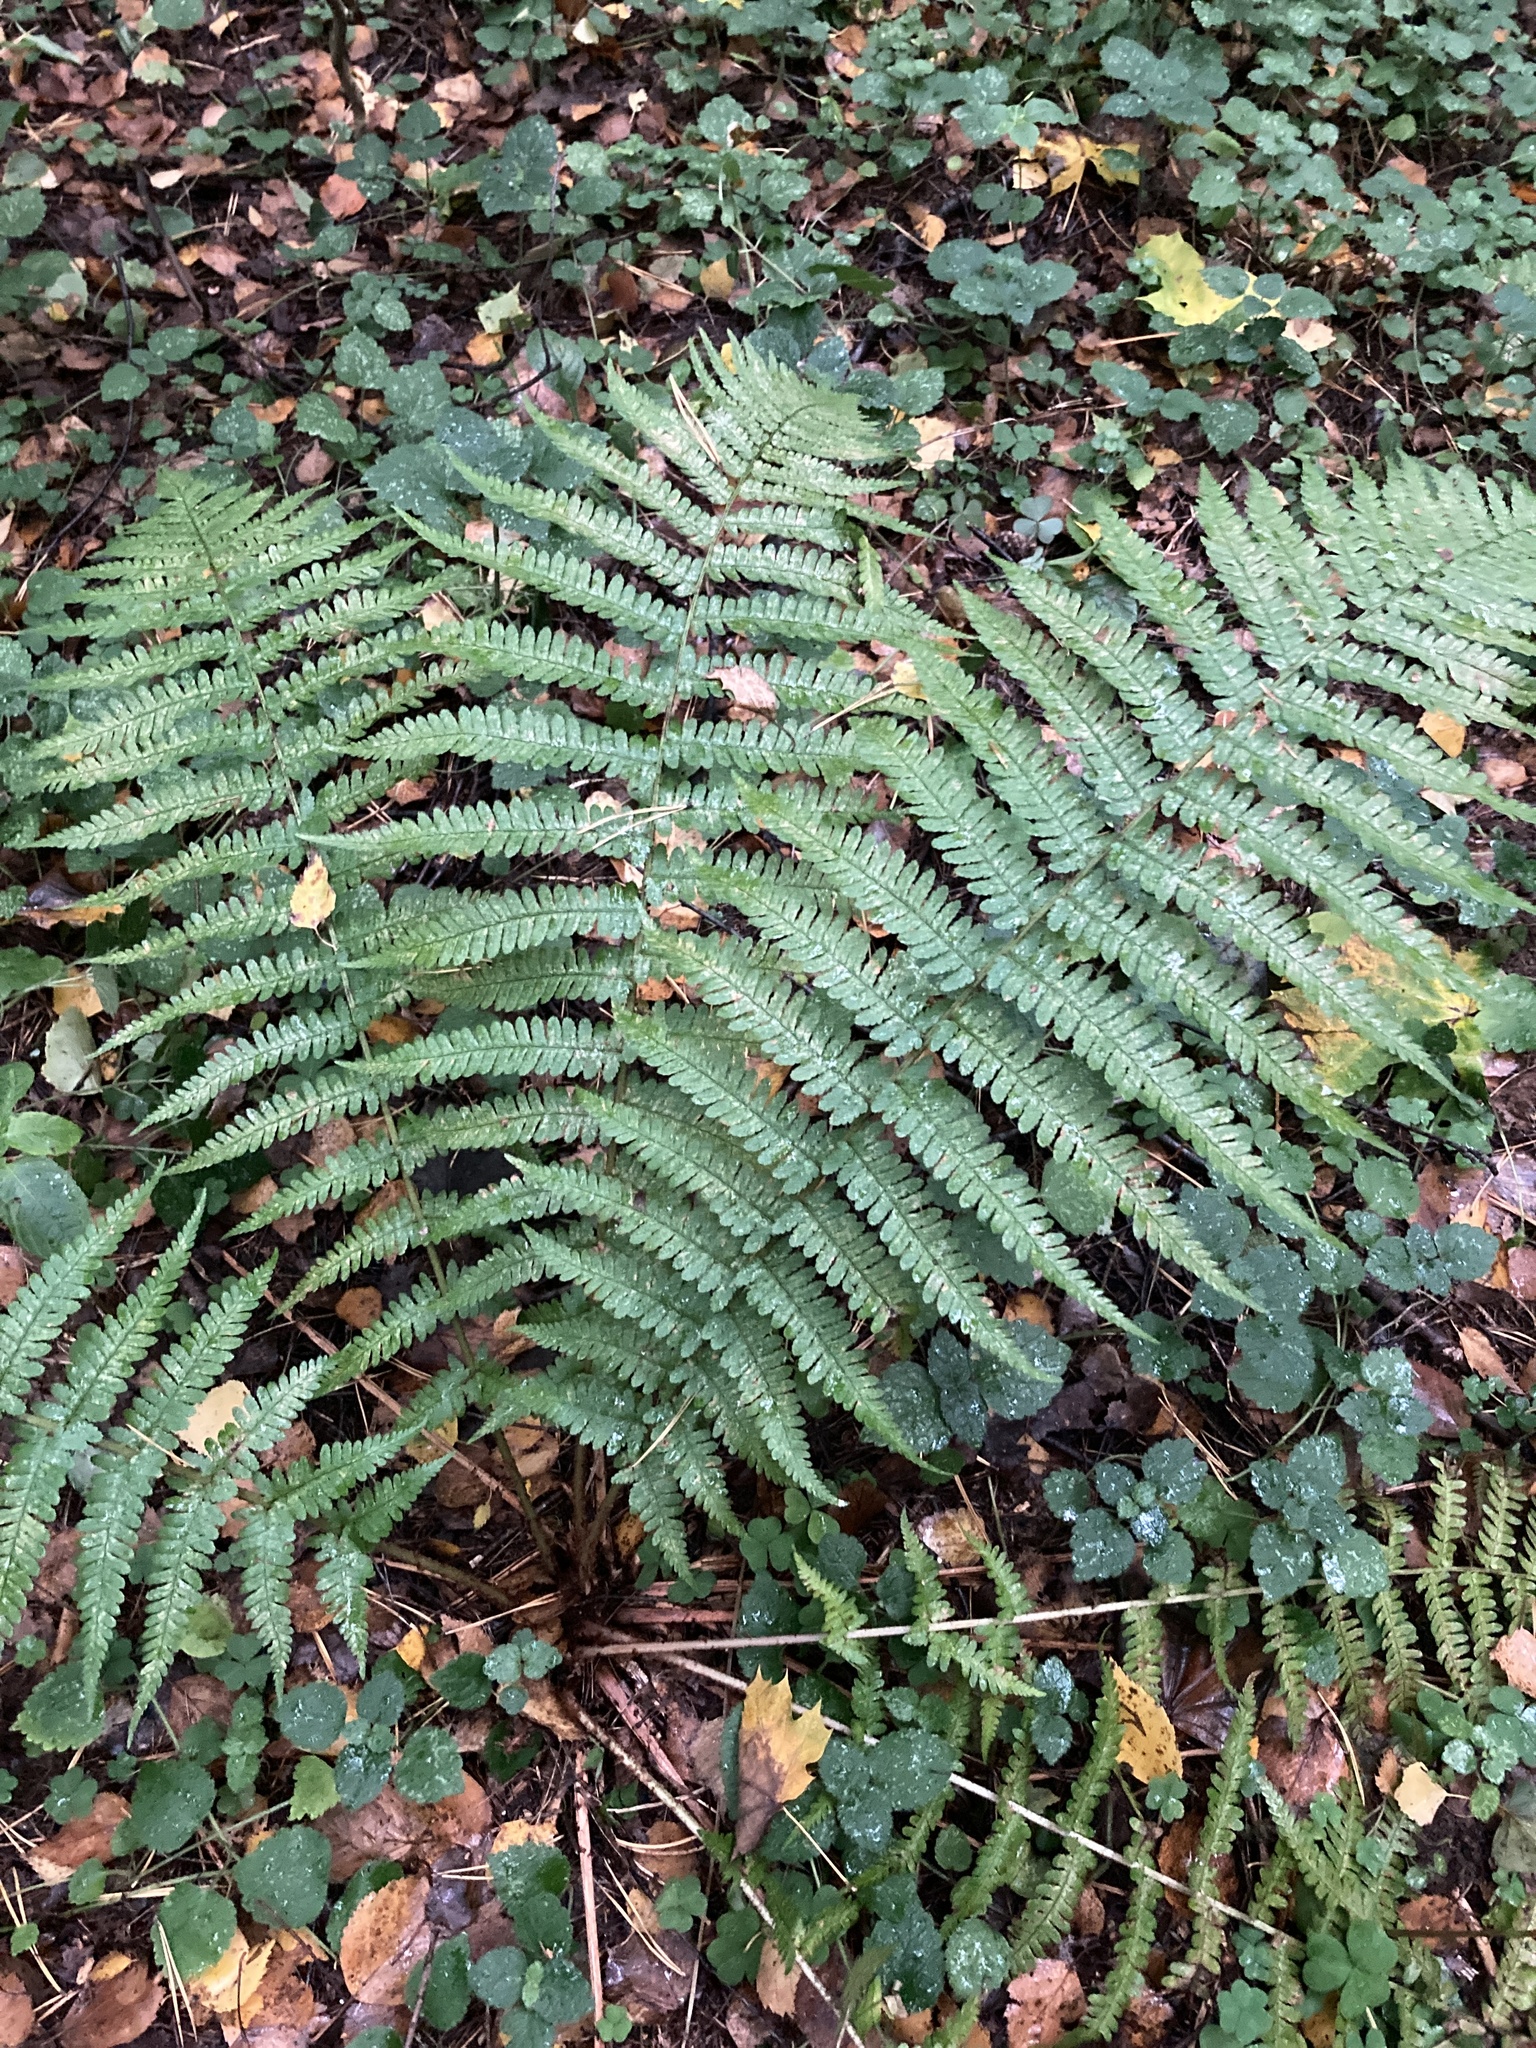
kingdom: Plantae
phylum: Tracheophyta
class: Polypodiopsida
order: Polypodiales
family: Dryopteridaceae
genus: Dryopteris
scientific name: Dryopteris filix-mas
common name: Male fern
